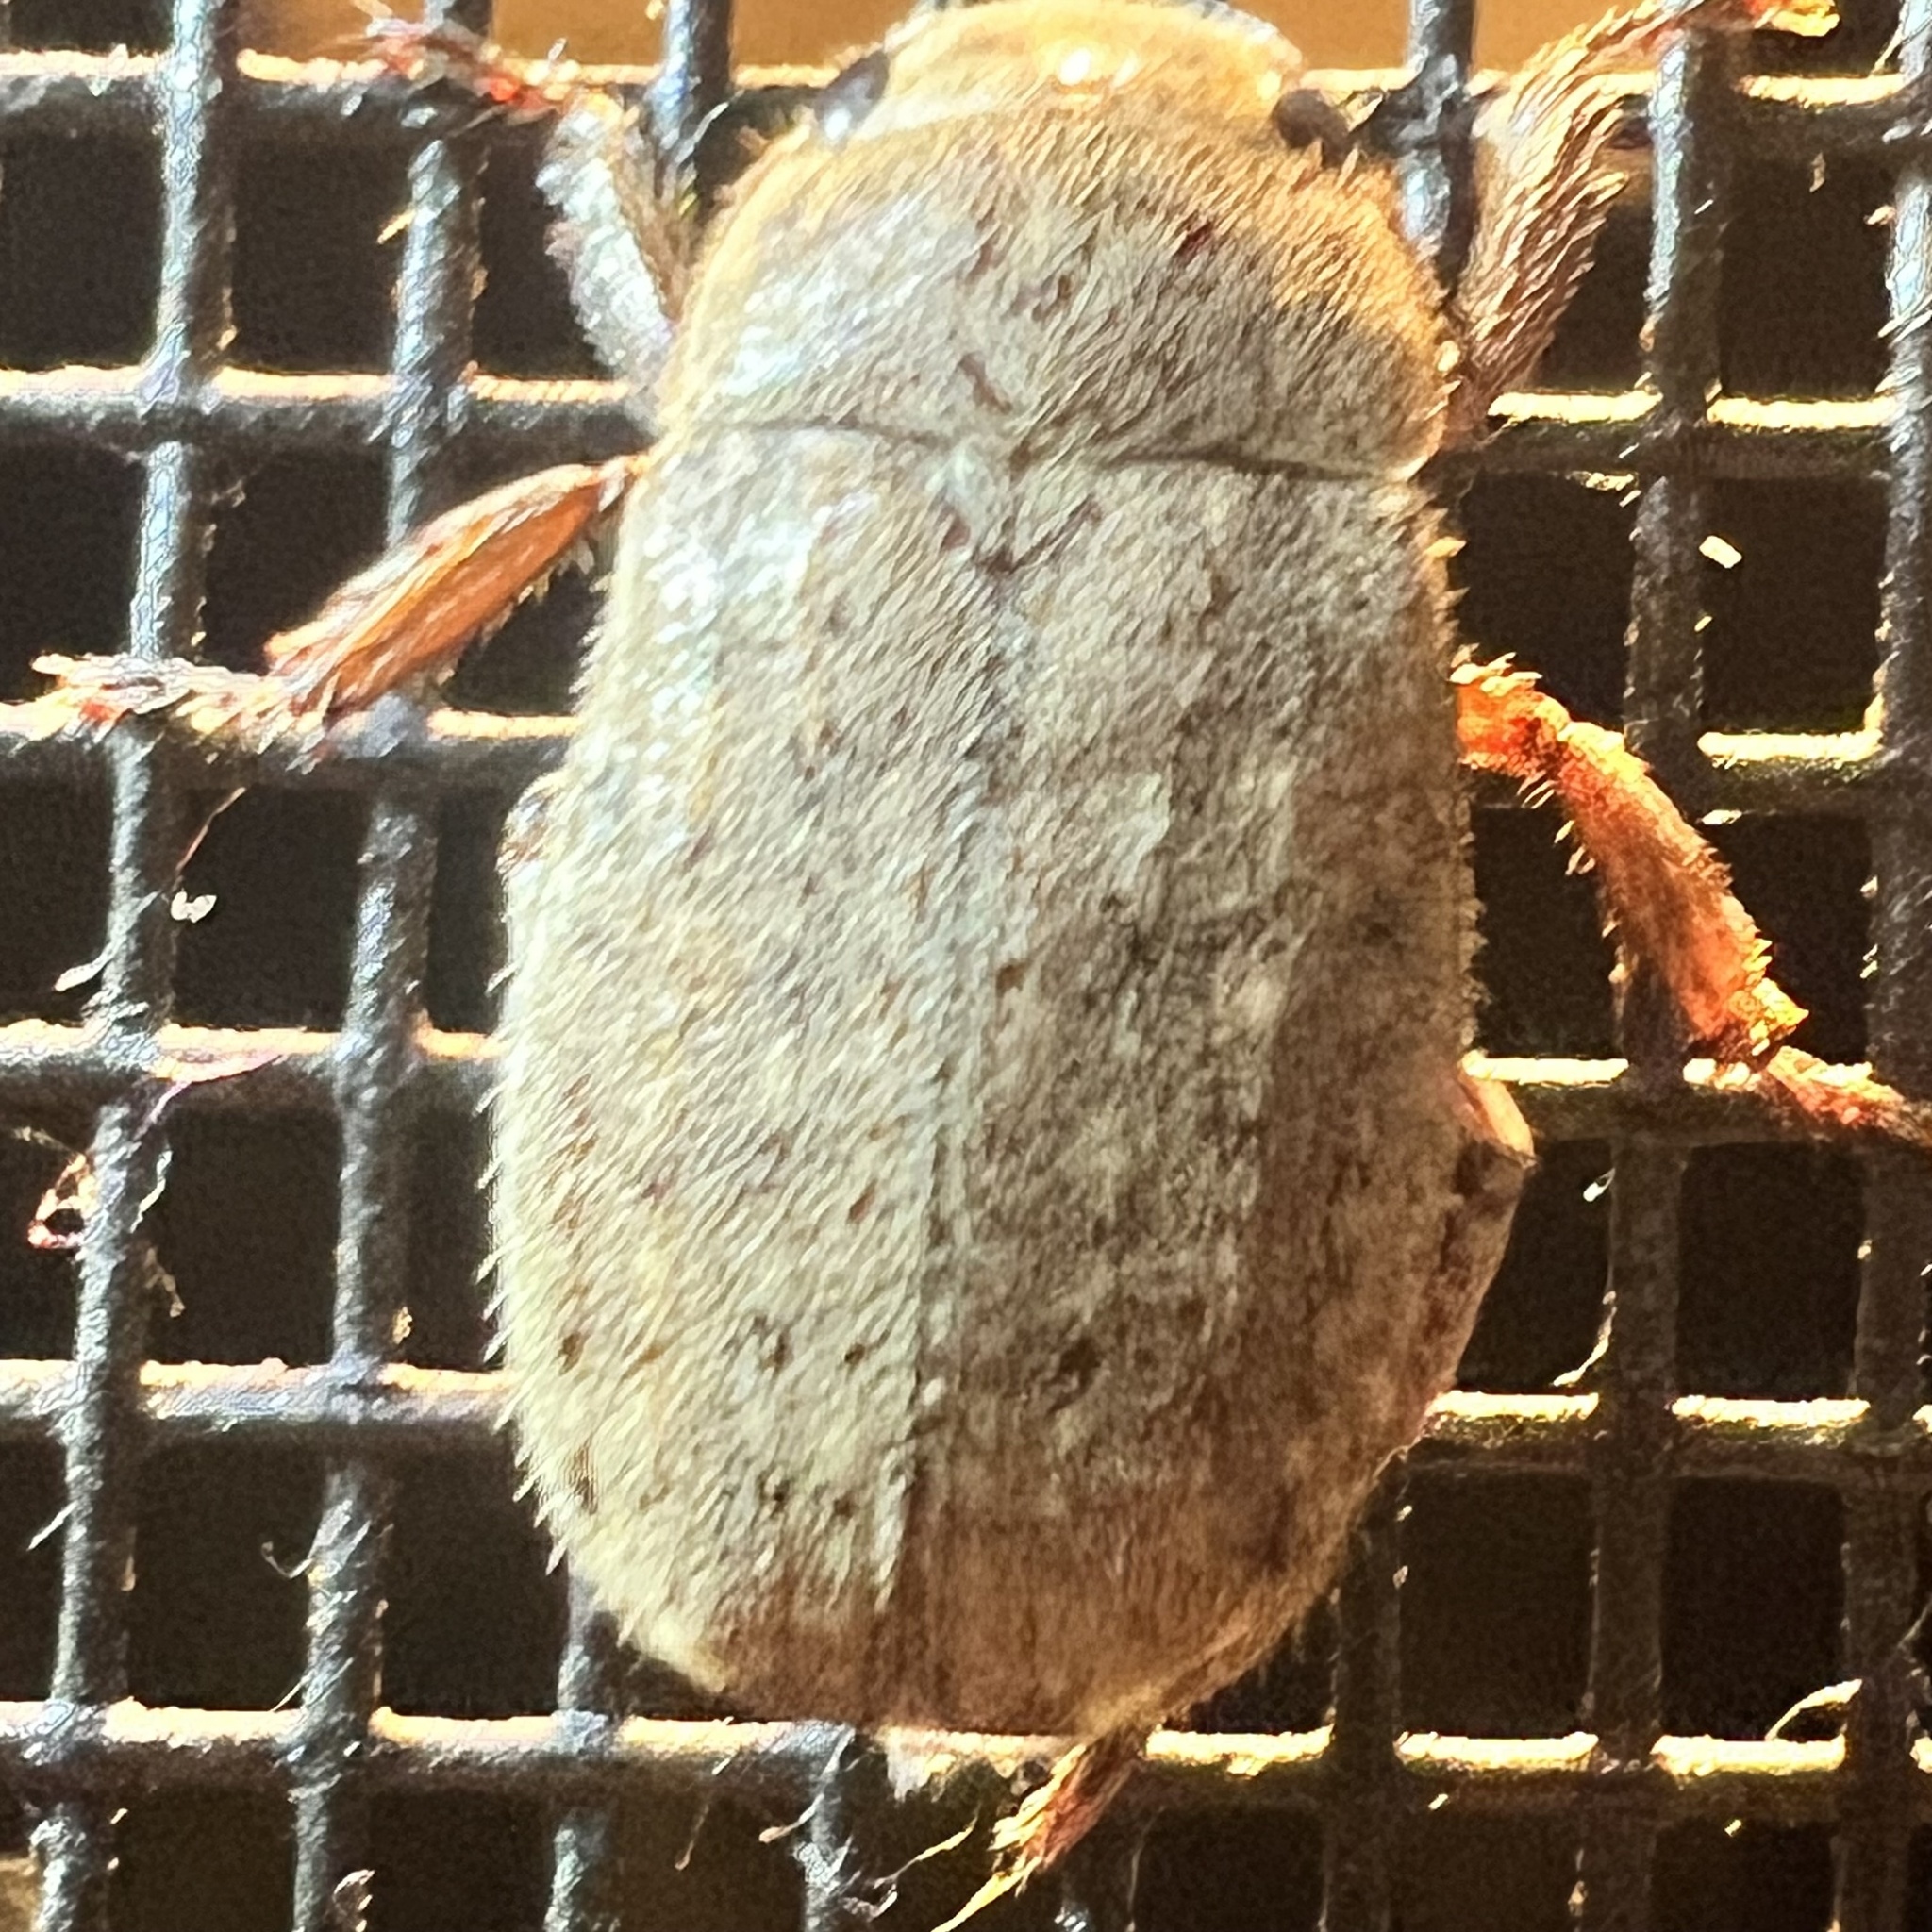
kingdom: Animalia
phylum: Arthropoda
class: Insecta
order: Coleoptera
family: Scarabaeidae
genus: Adoretus
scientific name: Adoretus sinicus
